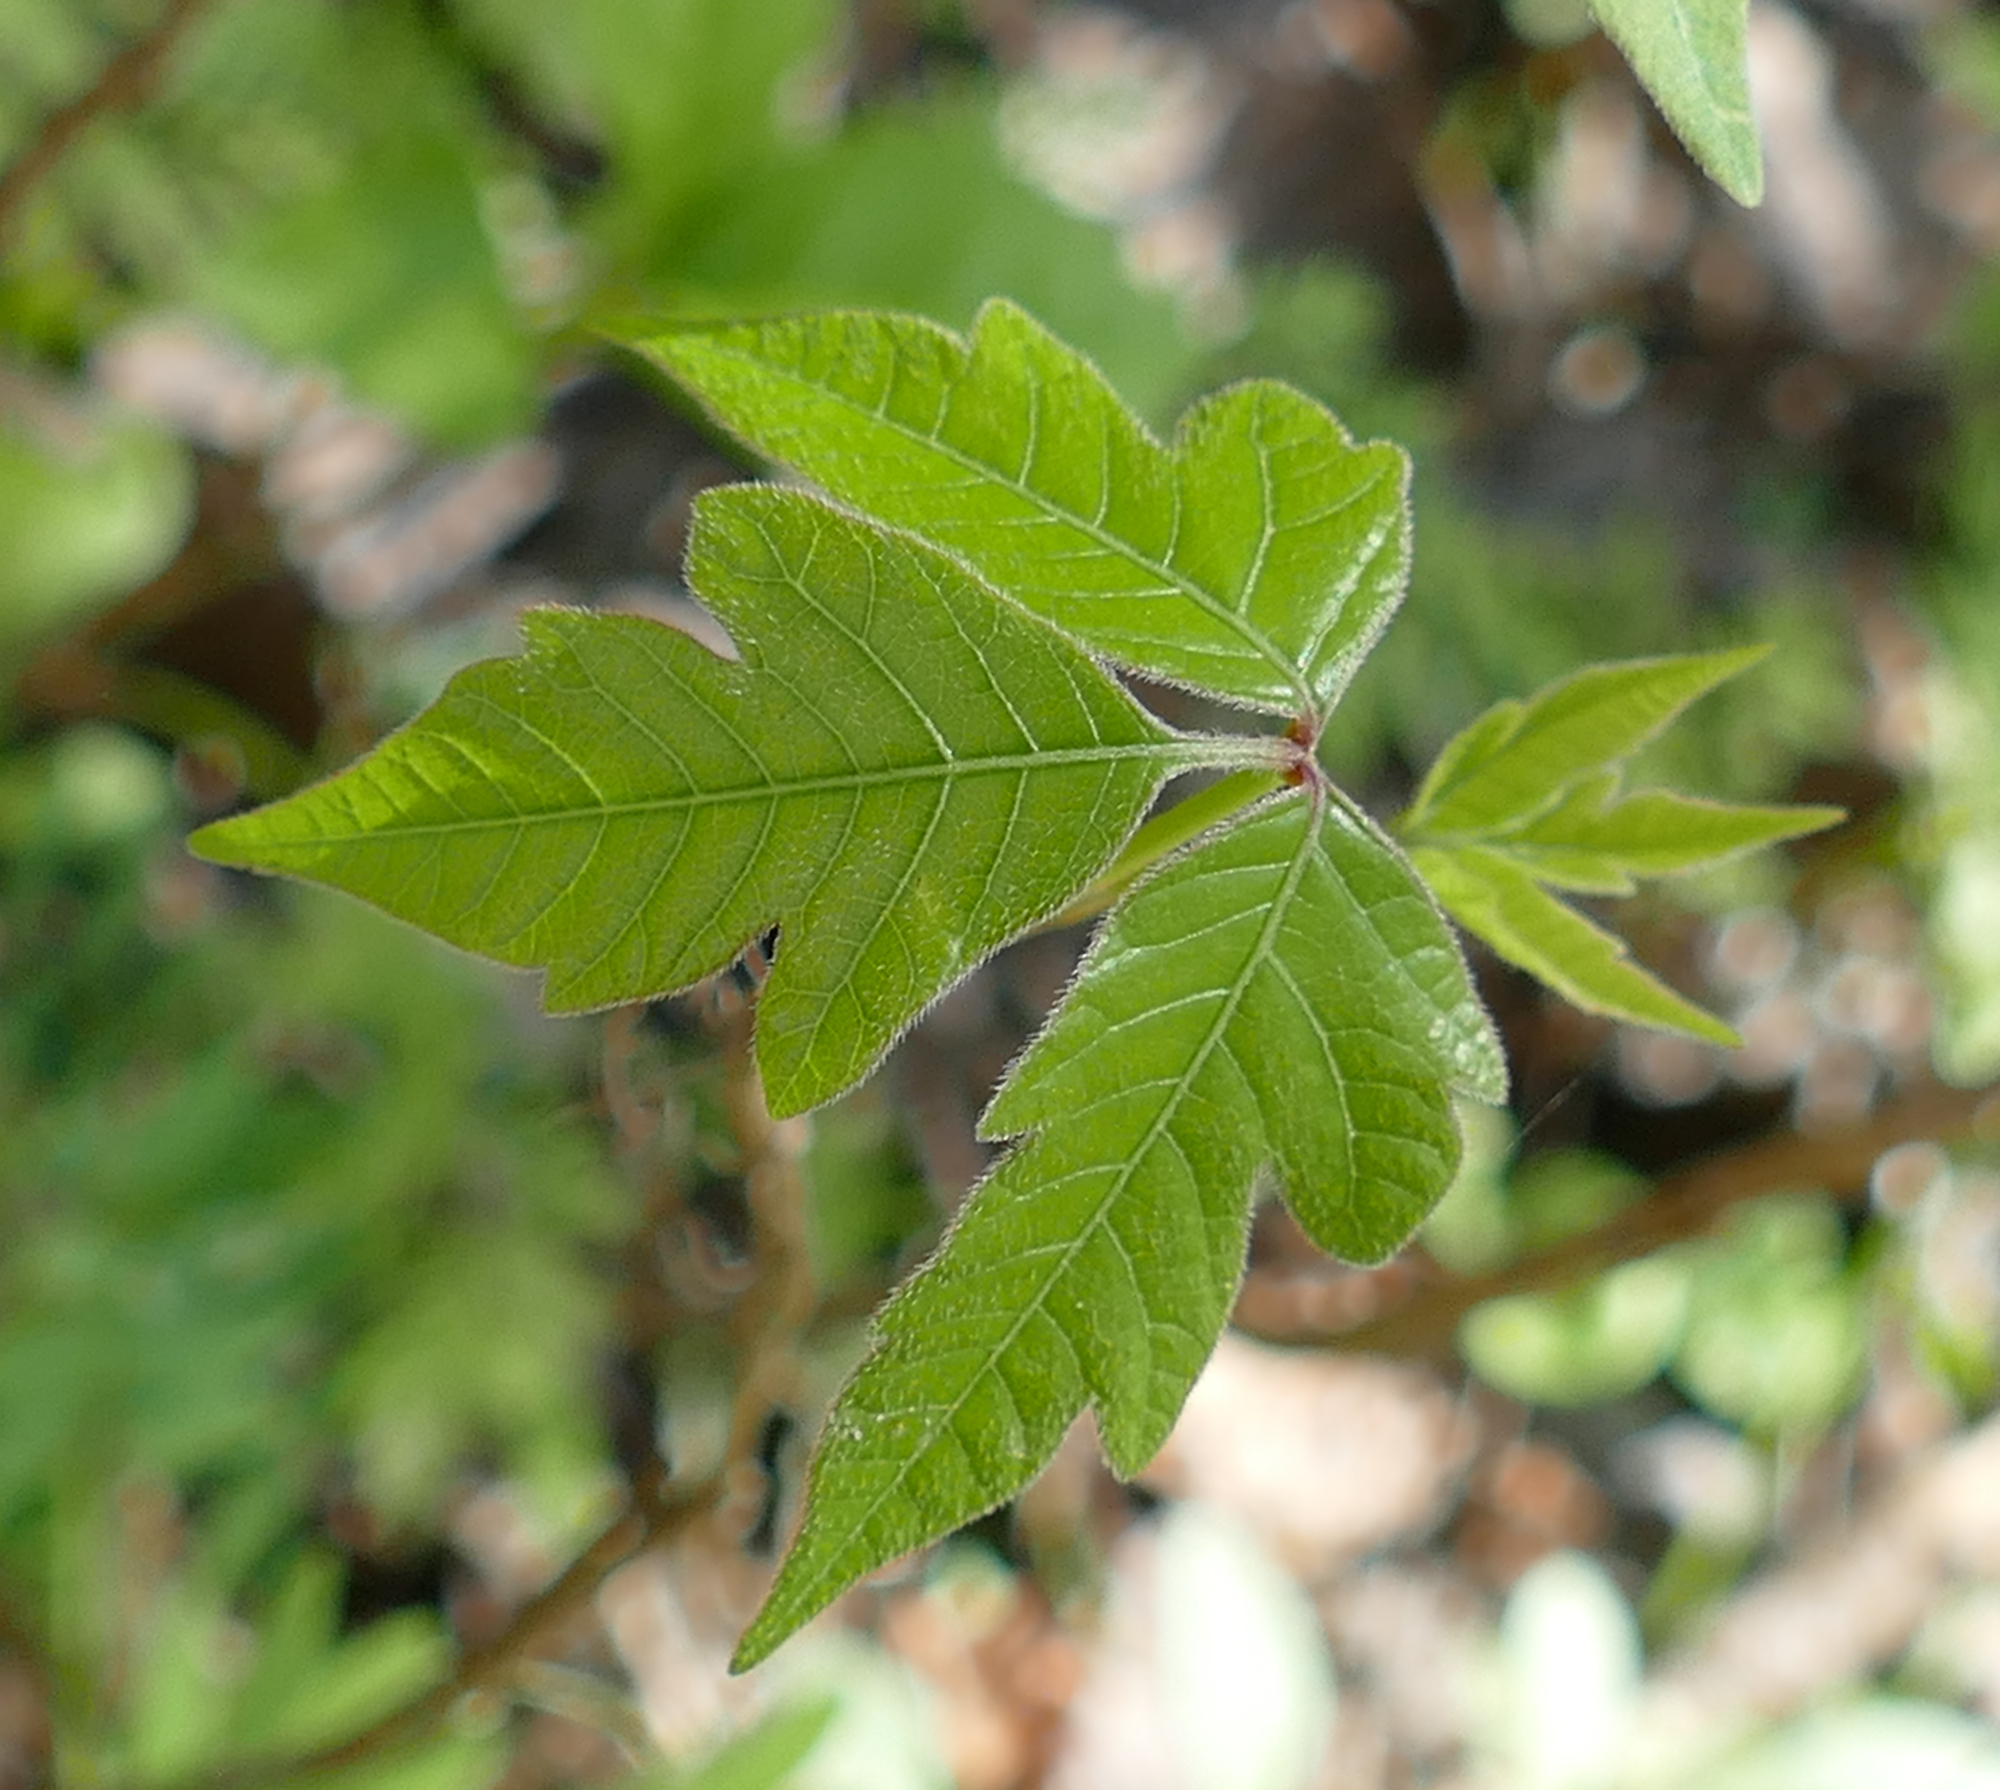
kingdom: Plantae
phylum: Tracheophyta
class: Magnoliopsida
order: Sapindales
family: Anacardiaceae
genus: Toxicodendron
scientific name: Toxicodendron radicans
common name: Poison ivy
